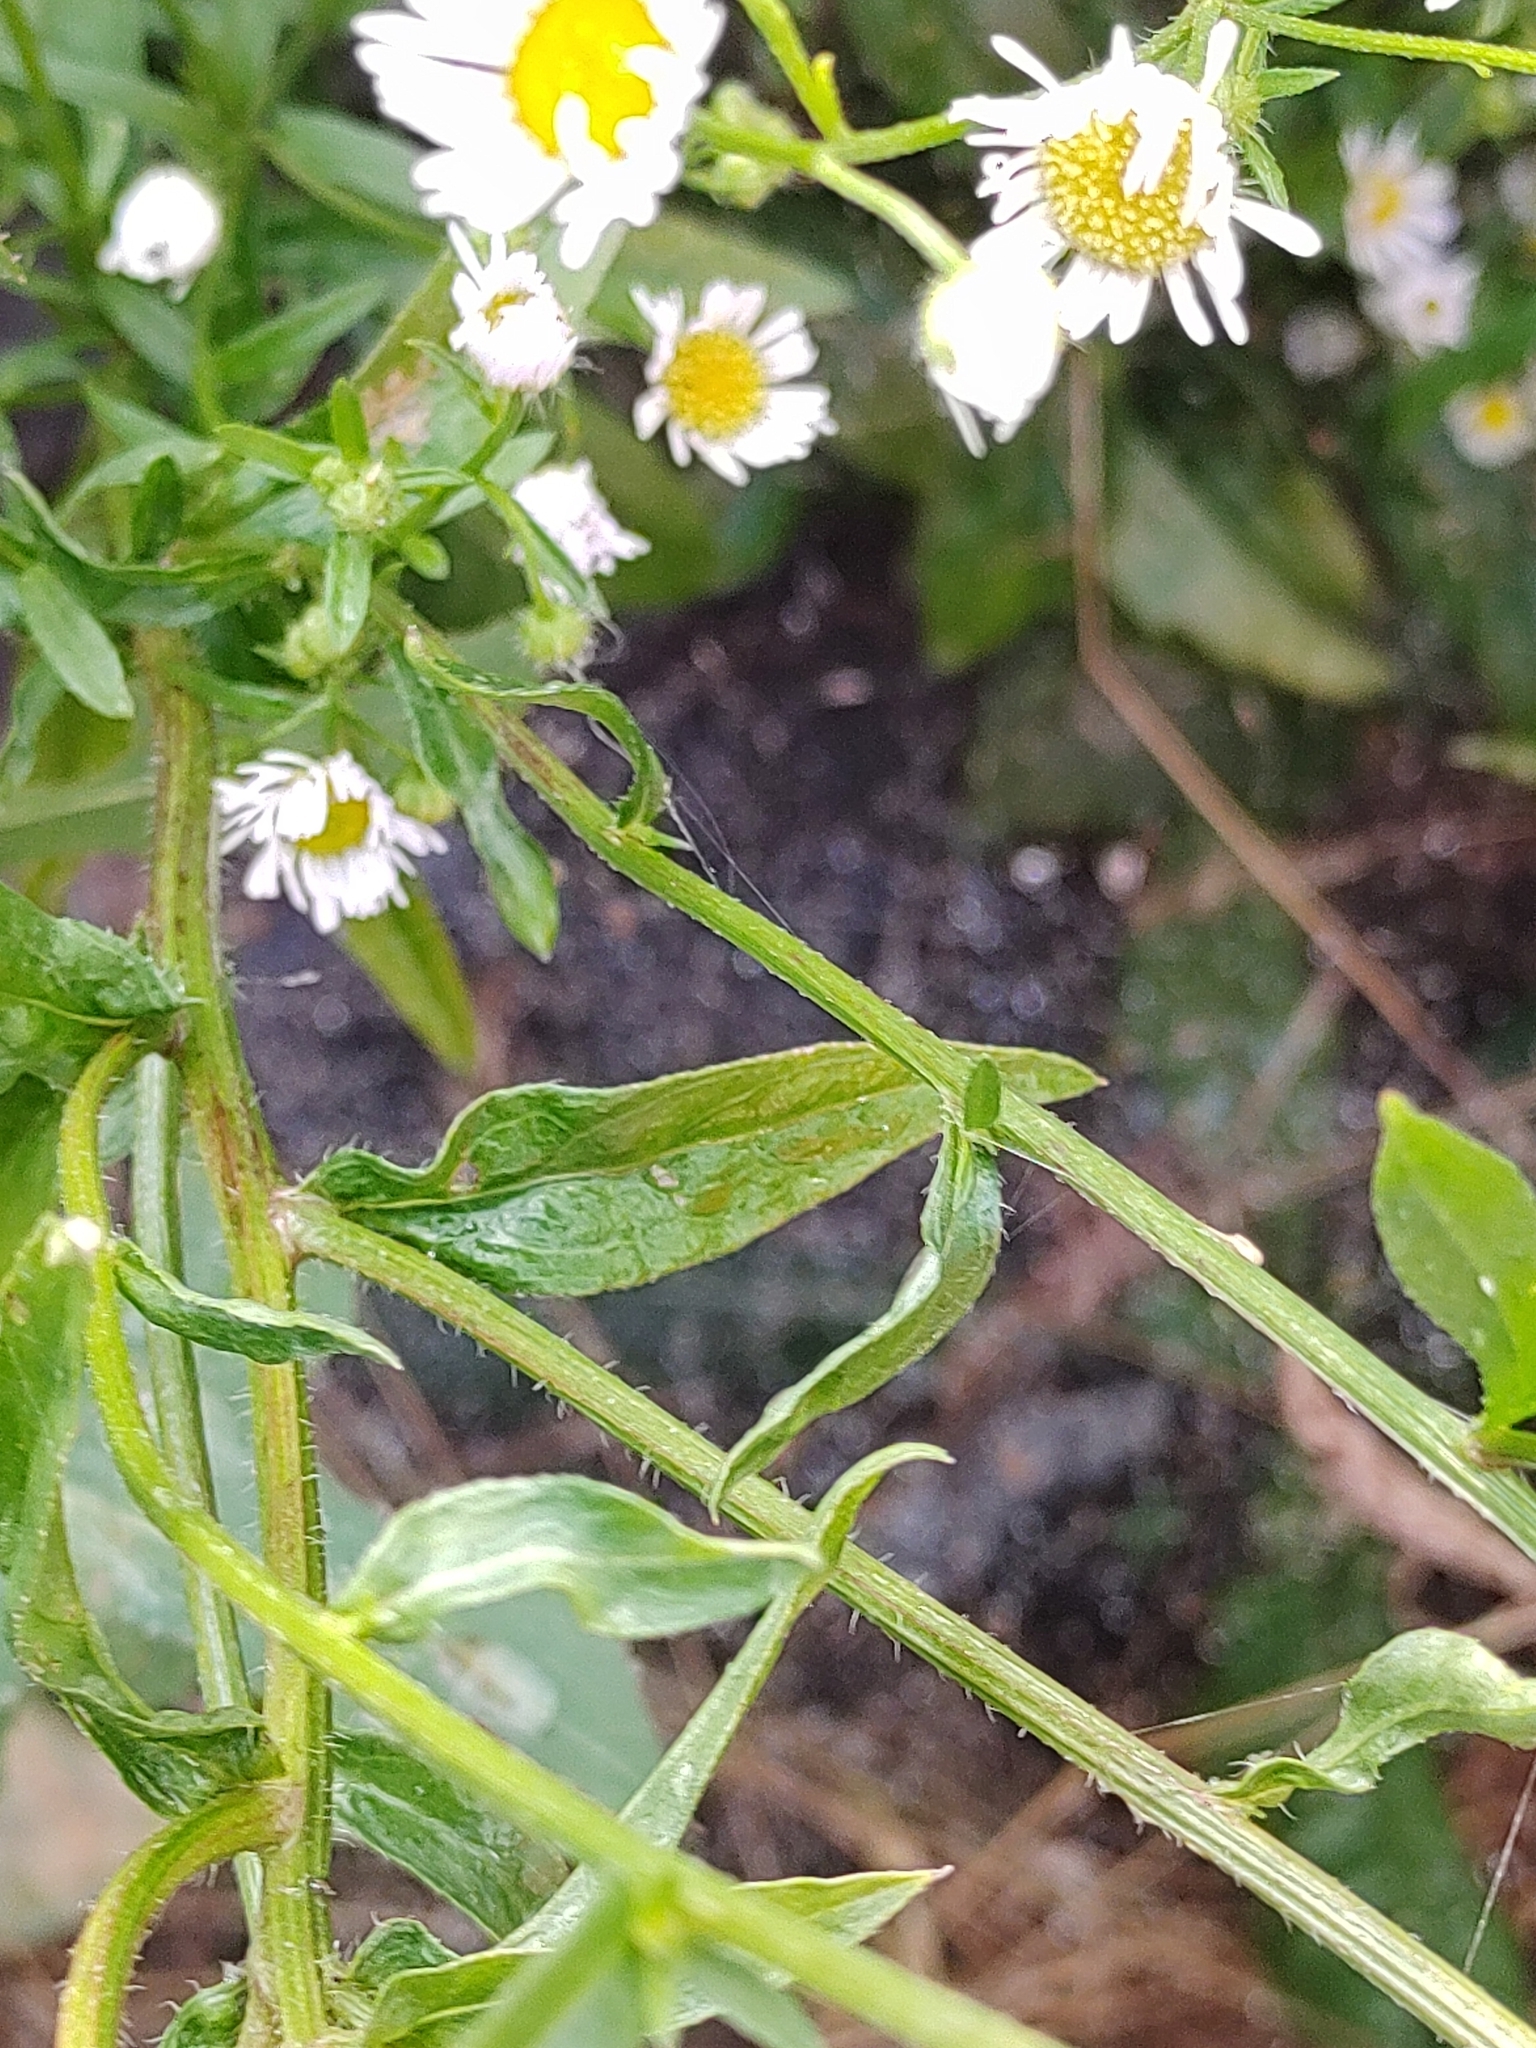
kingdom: Plantae
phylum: Tracheophyta
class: Magnoliopsida
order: Asterales
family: Asteraceae
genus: Erigeron
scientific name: Erigeron annuus
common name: Tall fleabane
